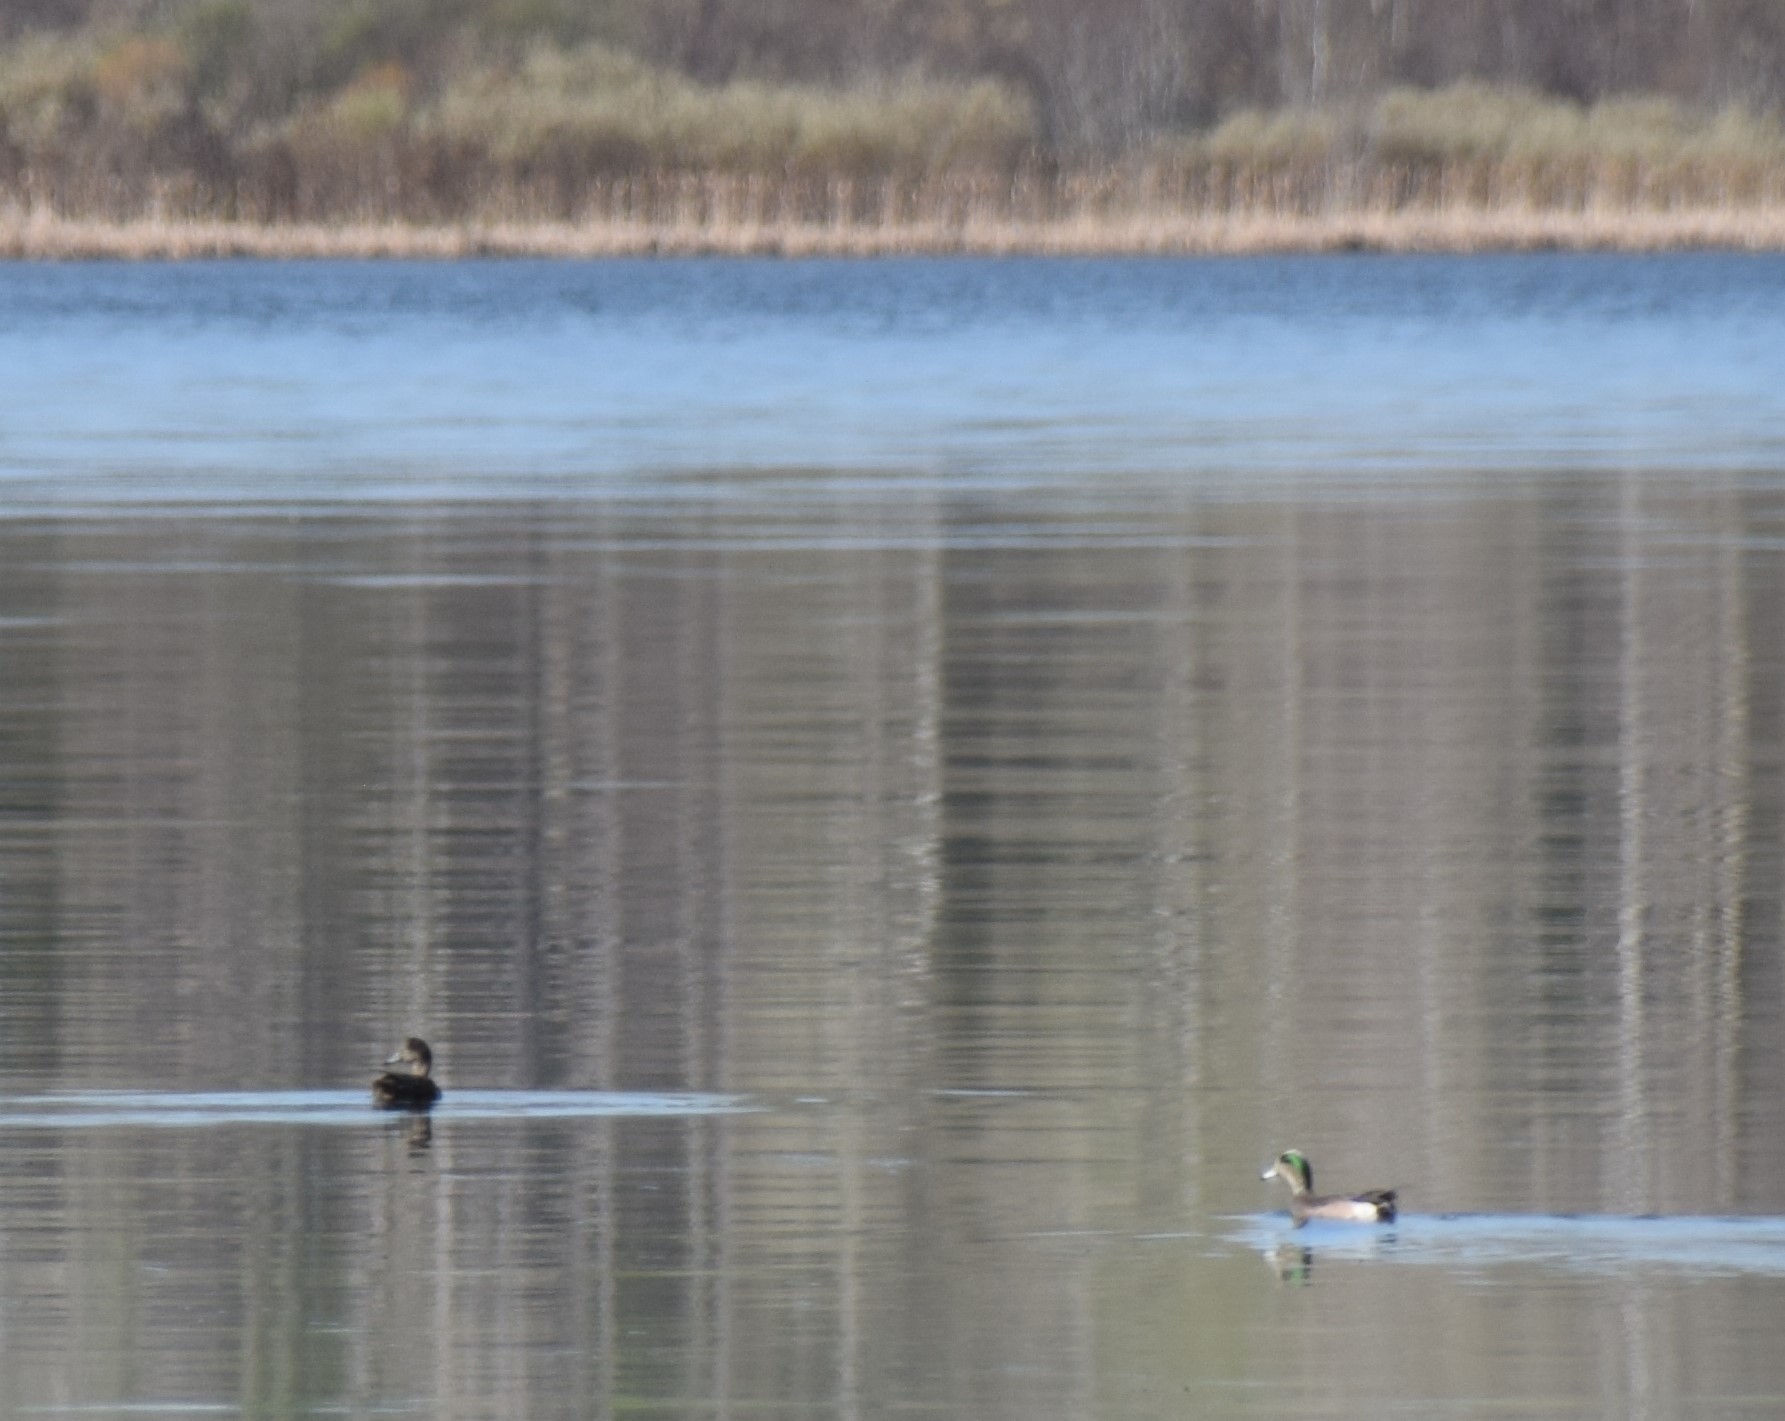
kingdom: Animalia
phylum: Chordata
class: Aves
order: Anseriformes
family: Anatidae
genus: Mareca
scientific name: Mareca americana
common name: American wigeon
